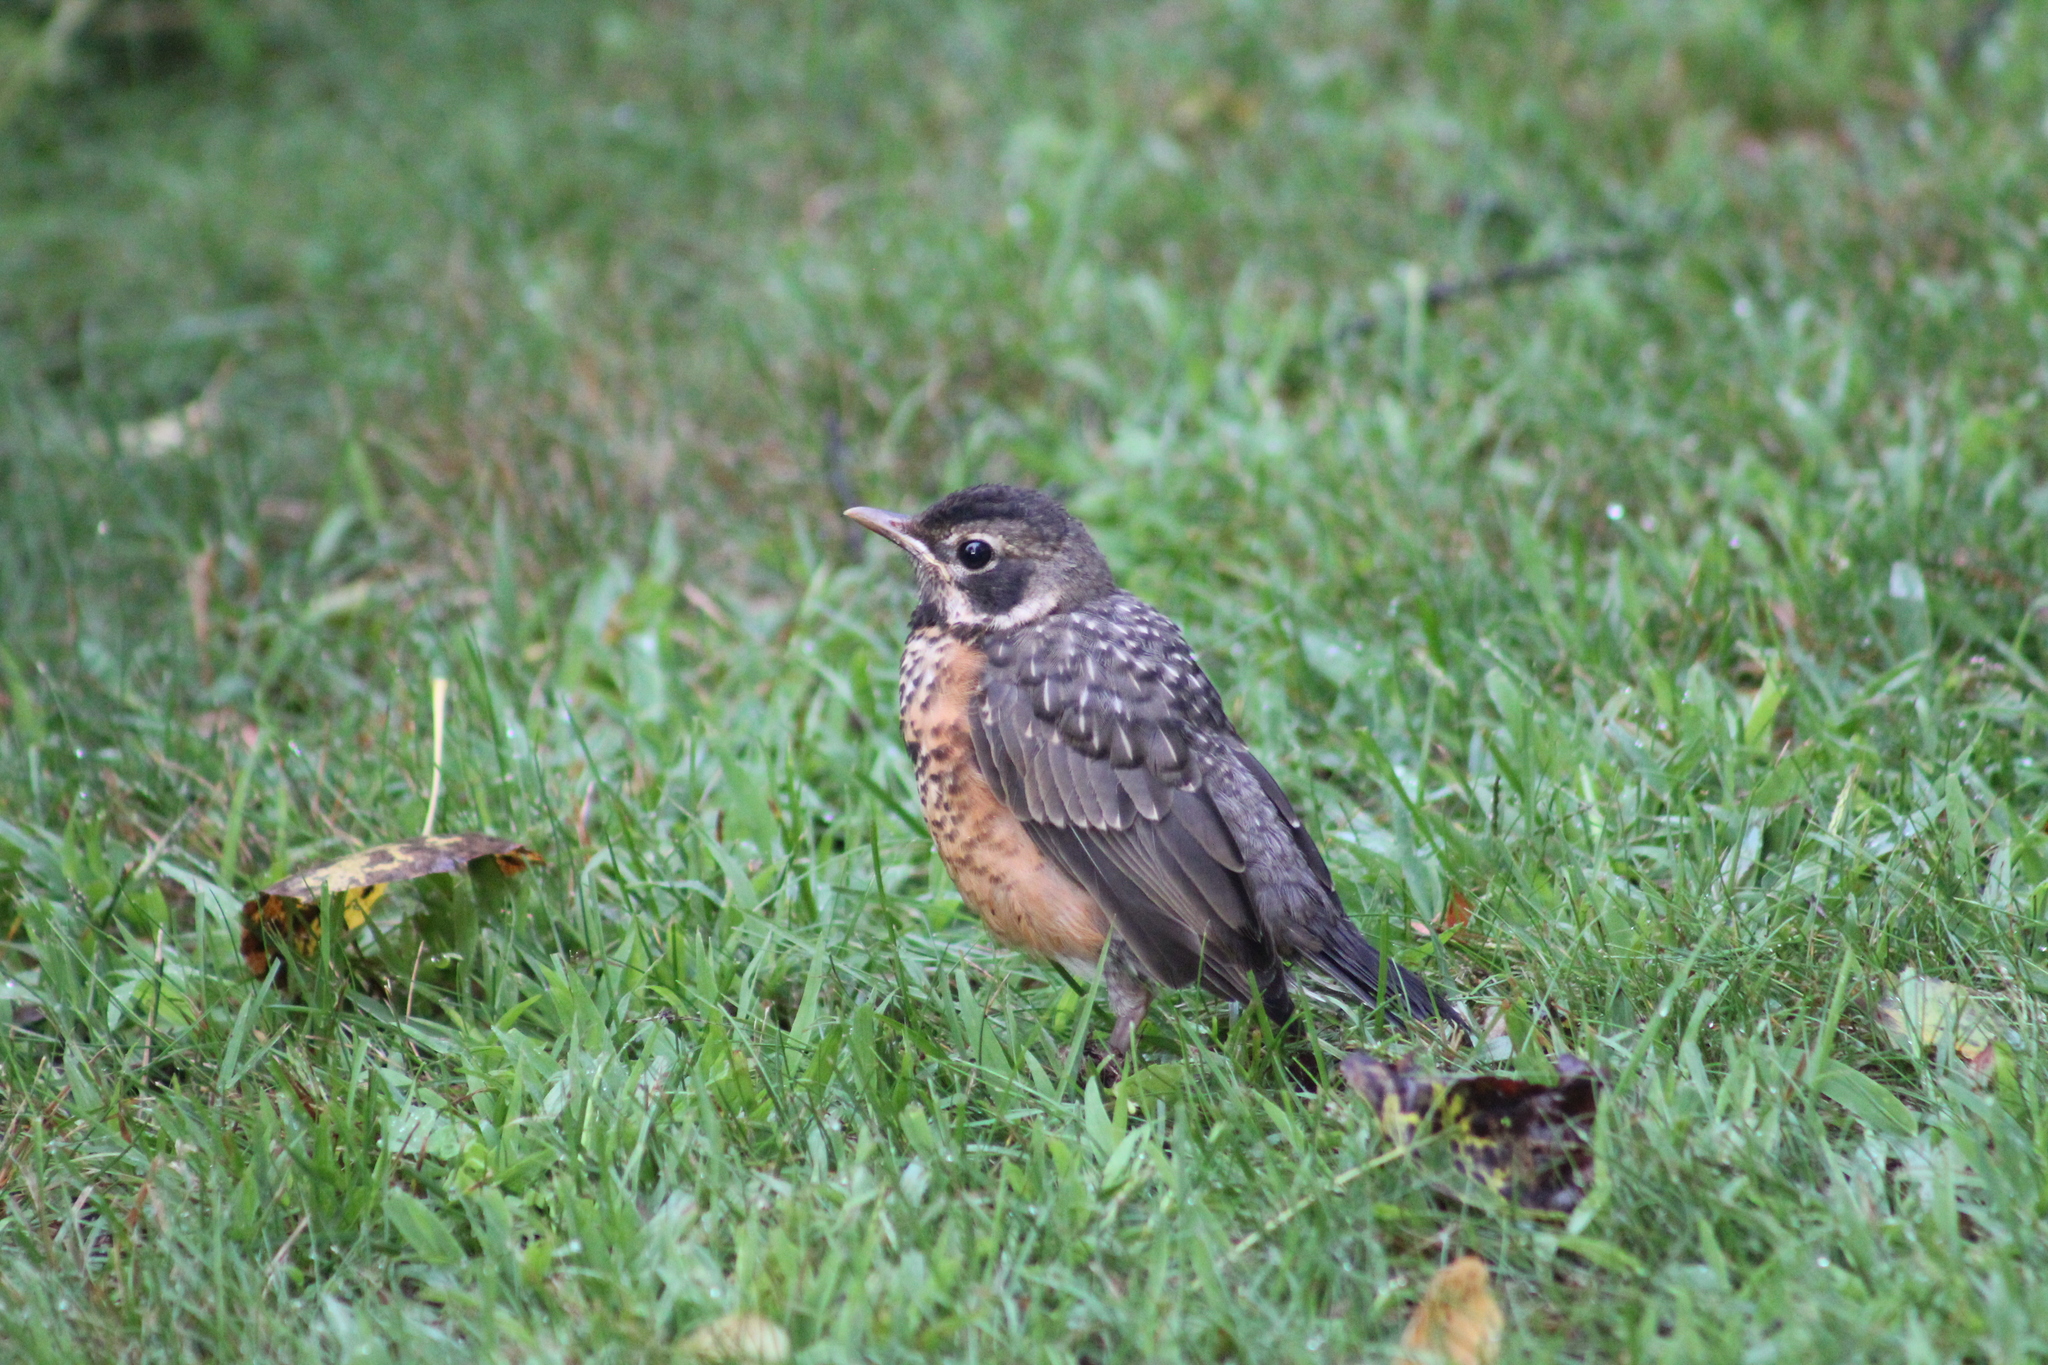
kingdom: Animalia
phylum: Chordata
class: Aves
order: Passeriformes
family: Turdidae
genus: Turdus
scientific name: Turdus migratorius
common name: American robin
